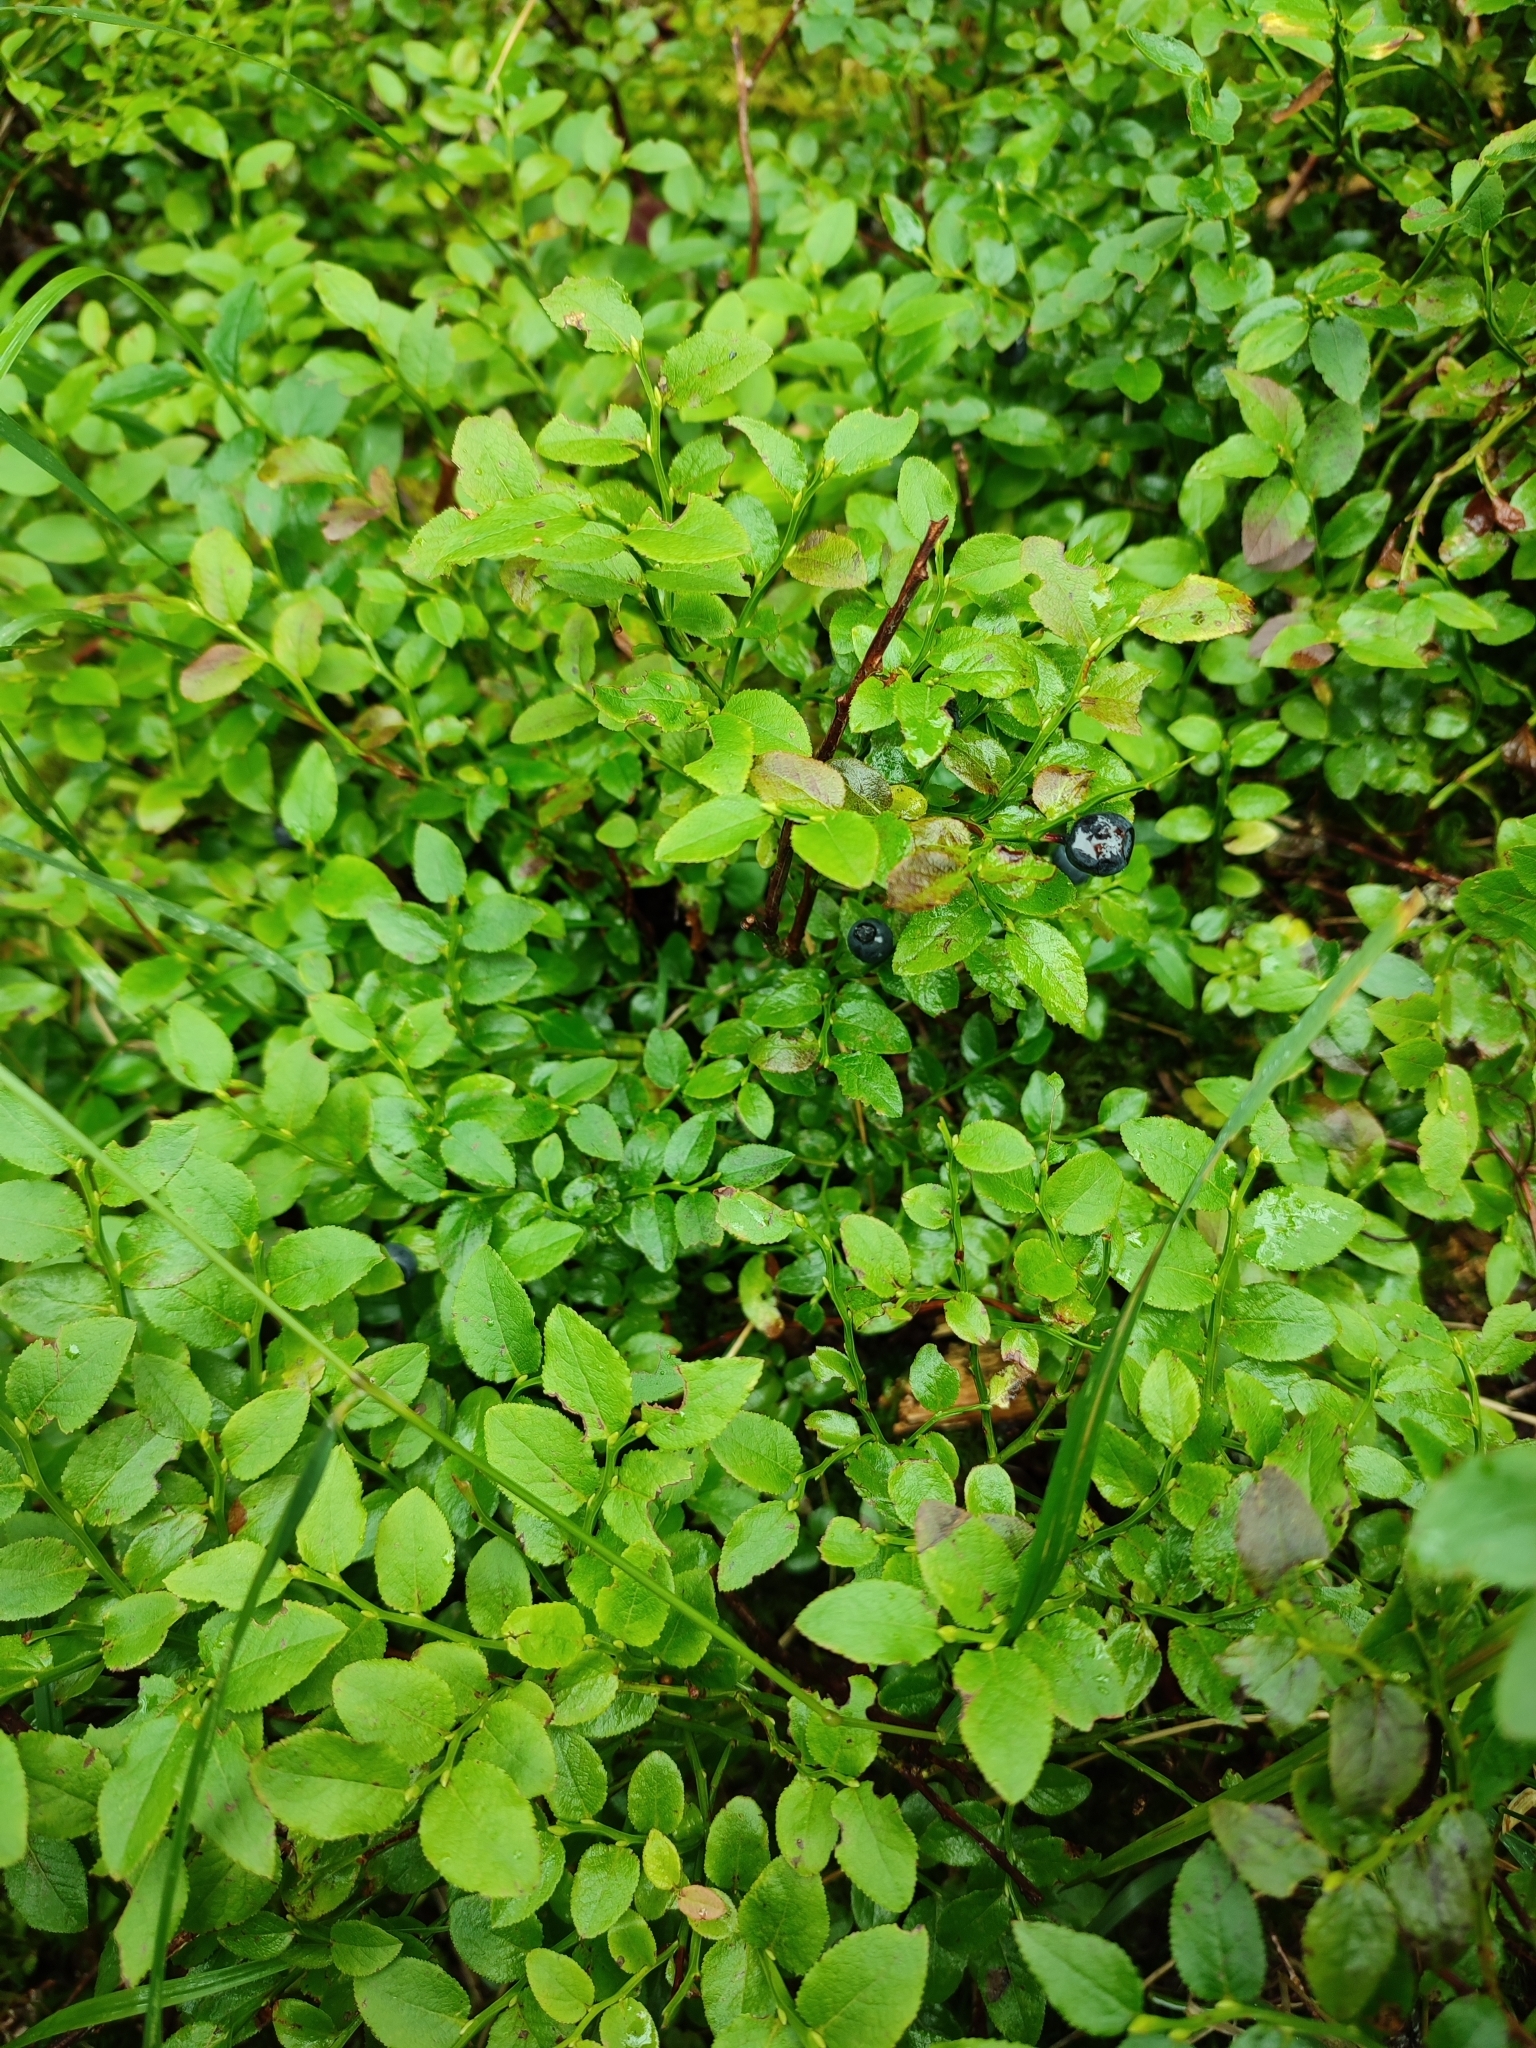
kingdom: Plantae
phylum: Tracheophyta
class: Magnoliopsida
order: Ericales
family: Ericaceae
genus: Vaccinium
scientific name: Vaccinium myrtillus
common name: Bilberry
